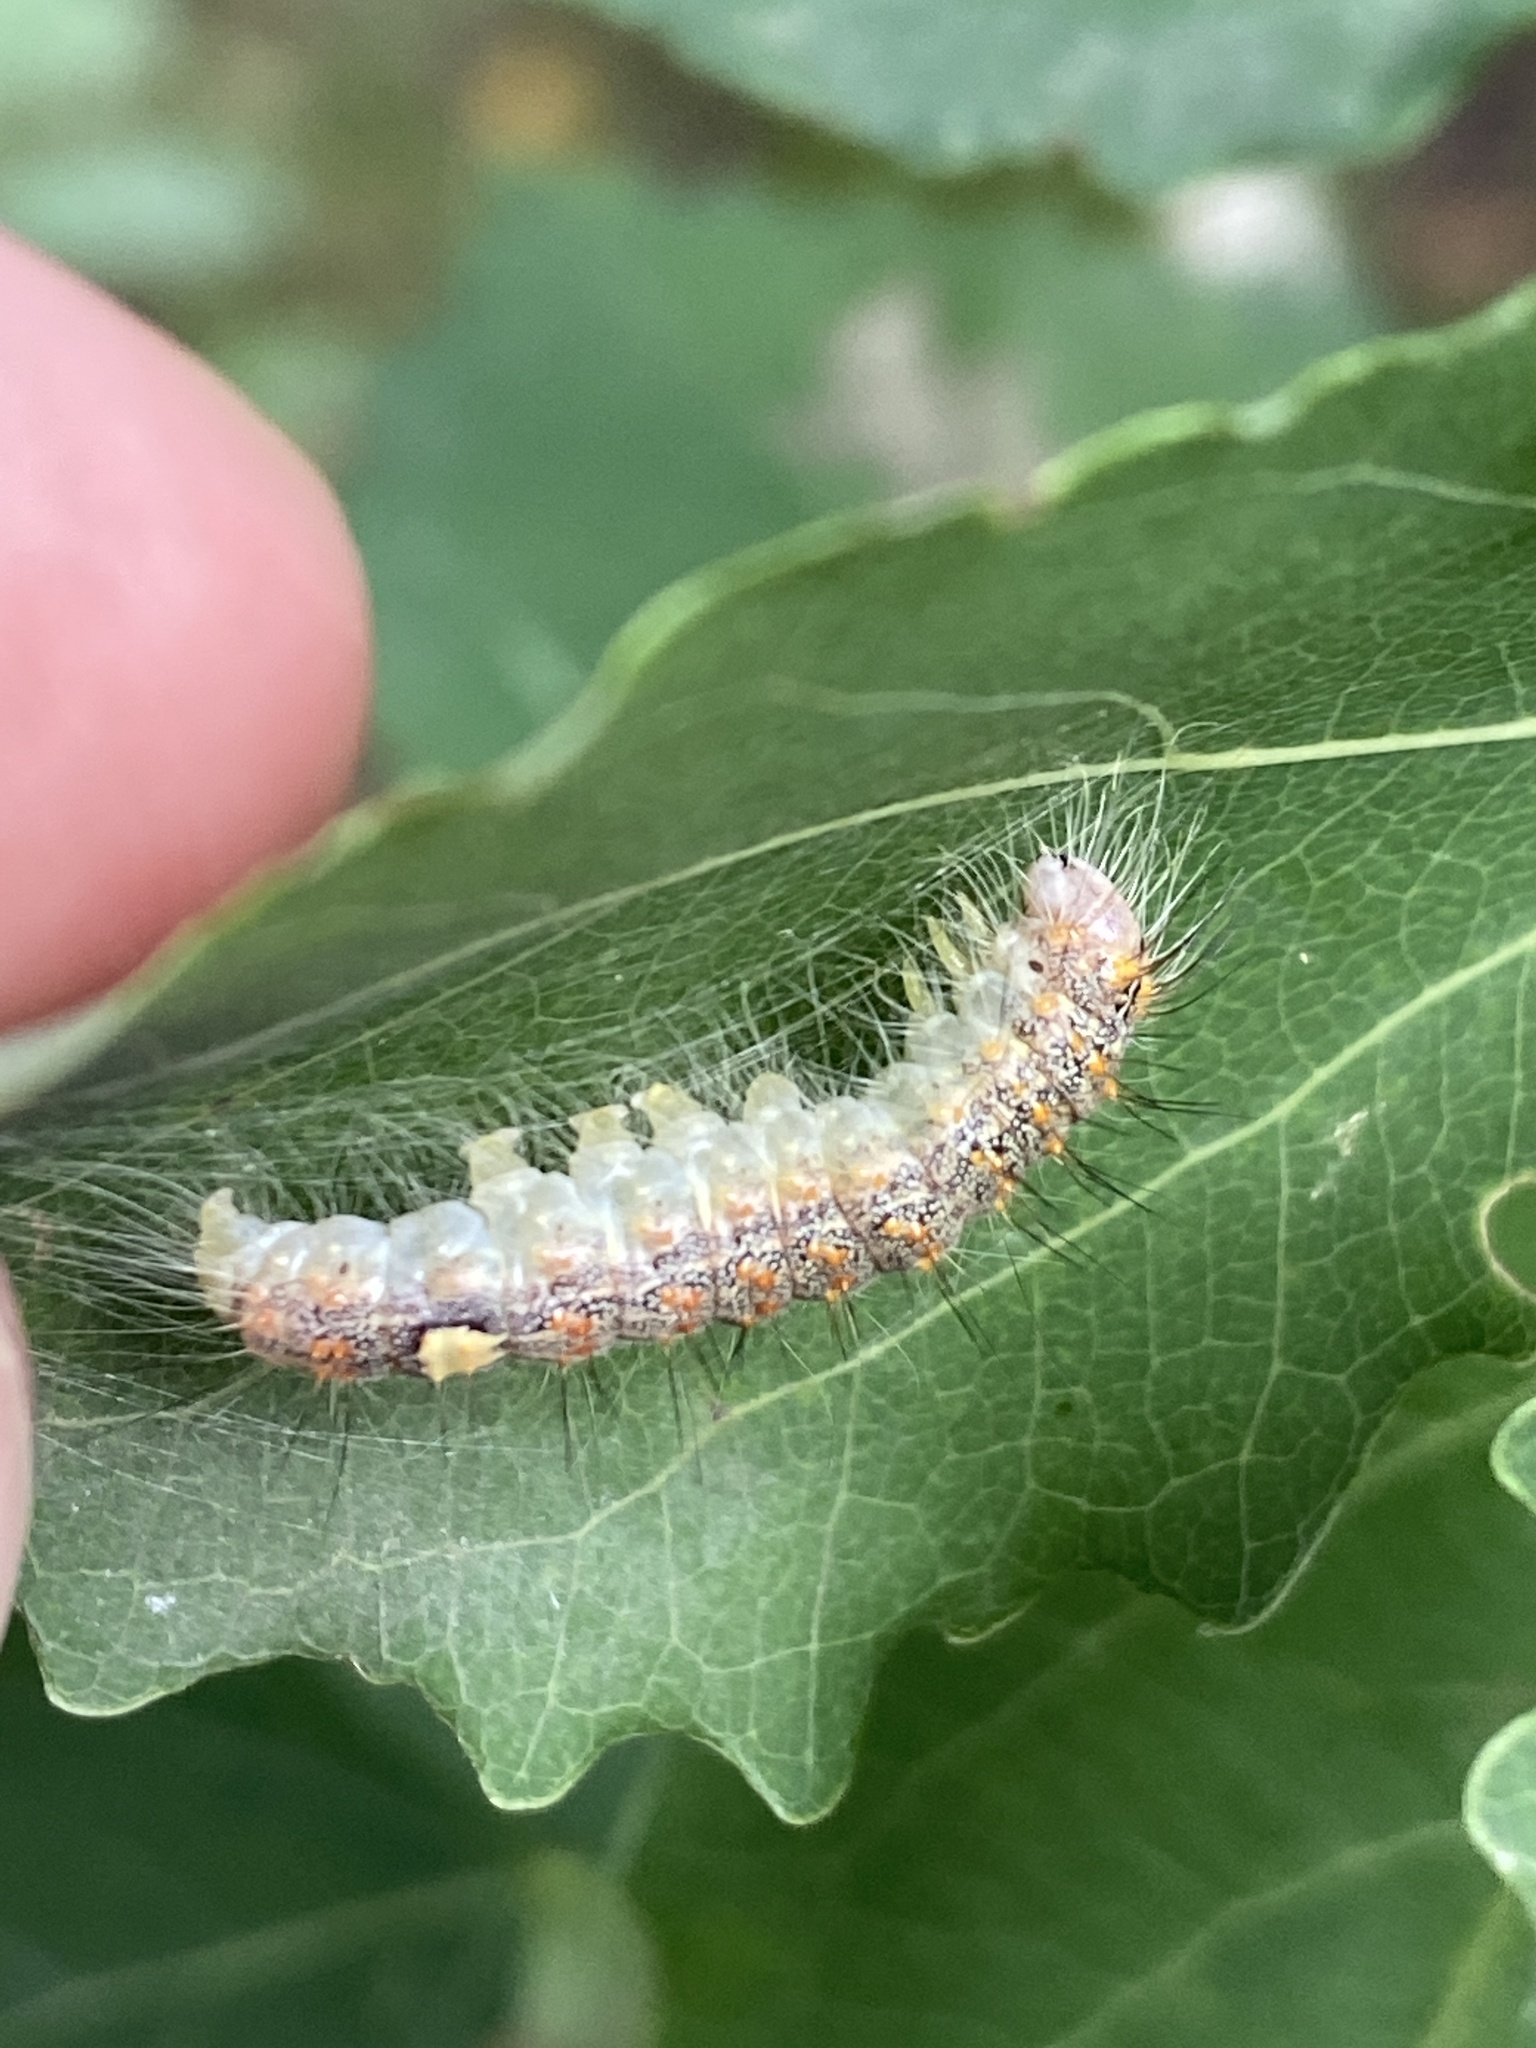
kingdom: Animalia
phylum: Arthropoda
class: Insecta
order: Lepidoptera
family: Noctuidae
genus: Acronicta
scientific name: Acronicta megacephala
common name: Poplar grey
